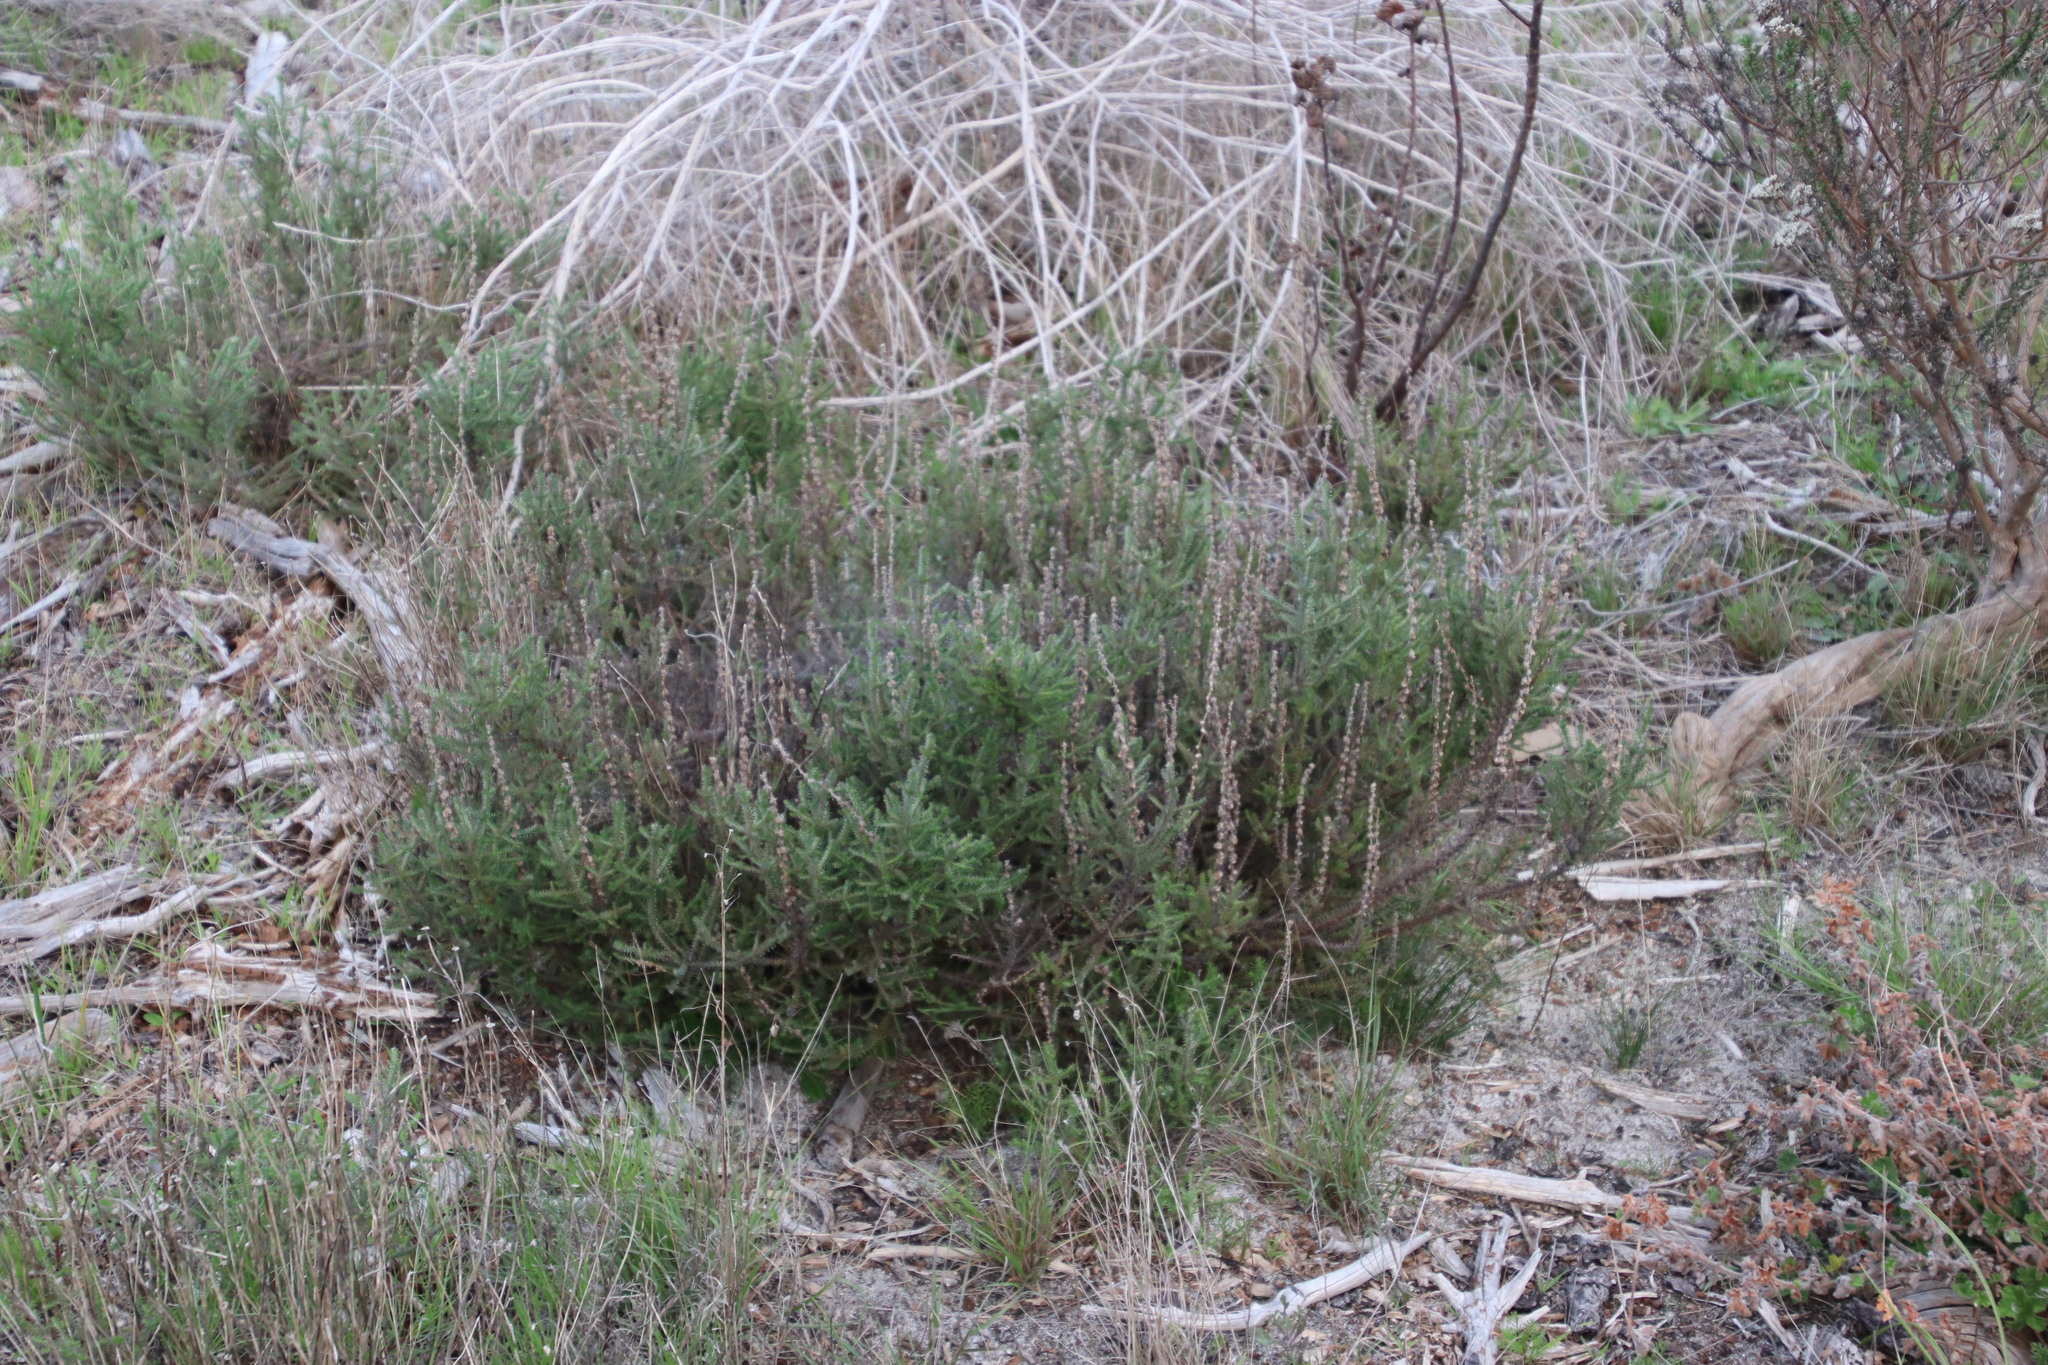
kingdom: Plantae
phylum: Tracheophyta
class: Magnoliopsida
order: Asterales
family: Asteraceae
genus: Seriphium
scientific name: Seriphium cinereum
